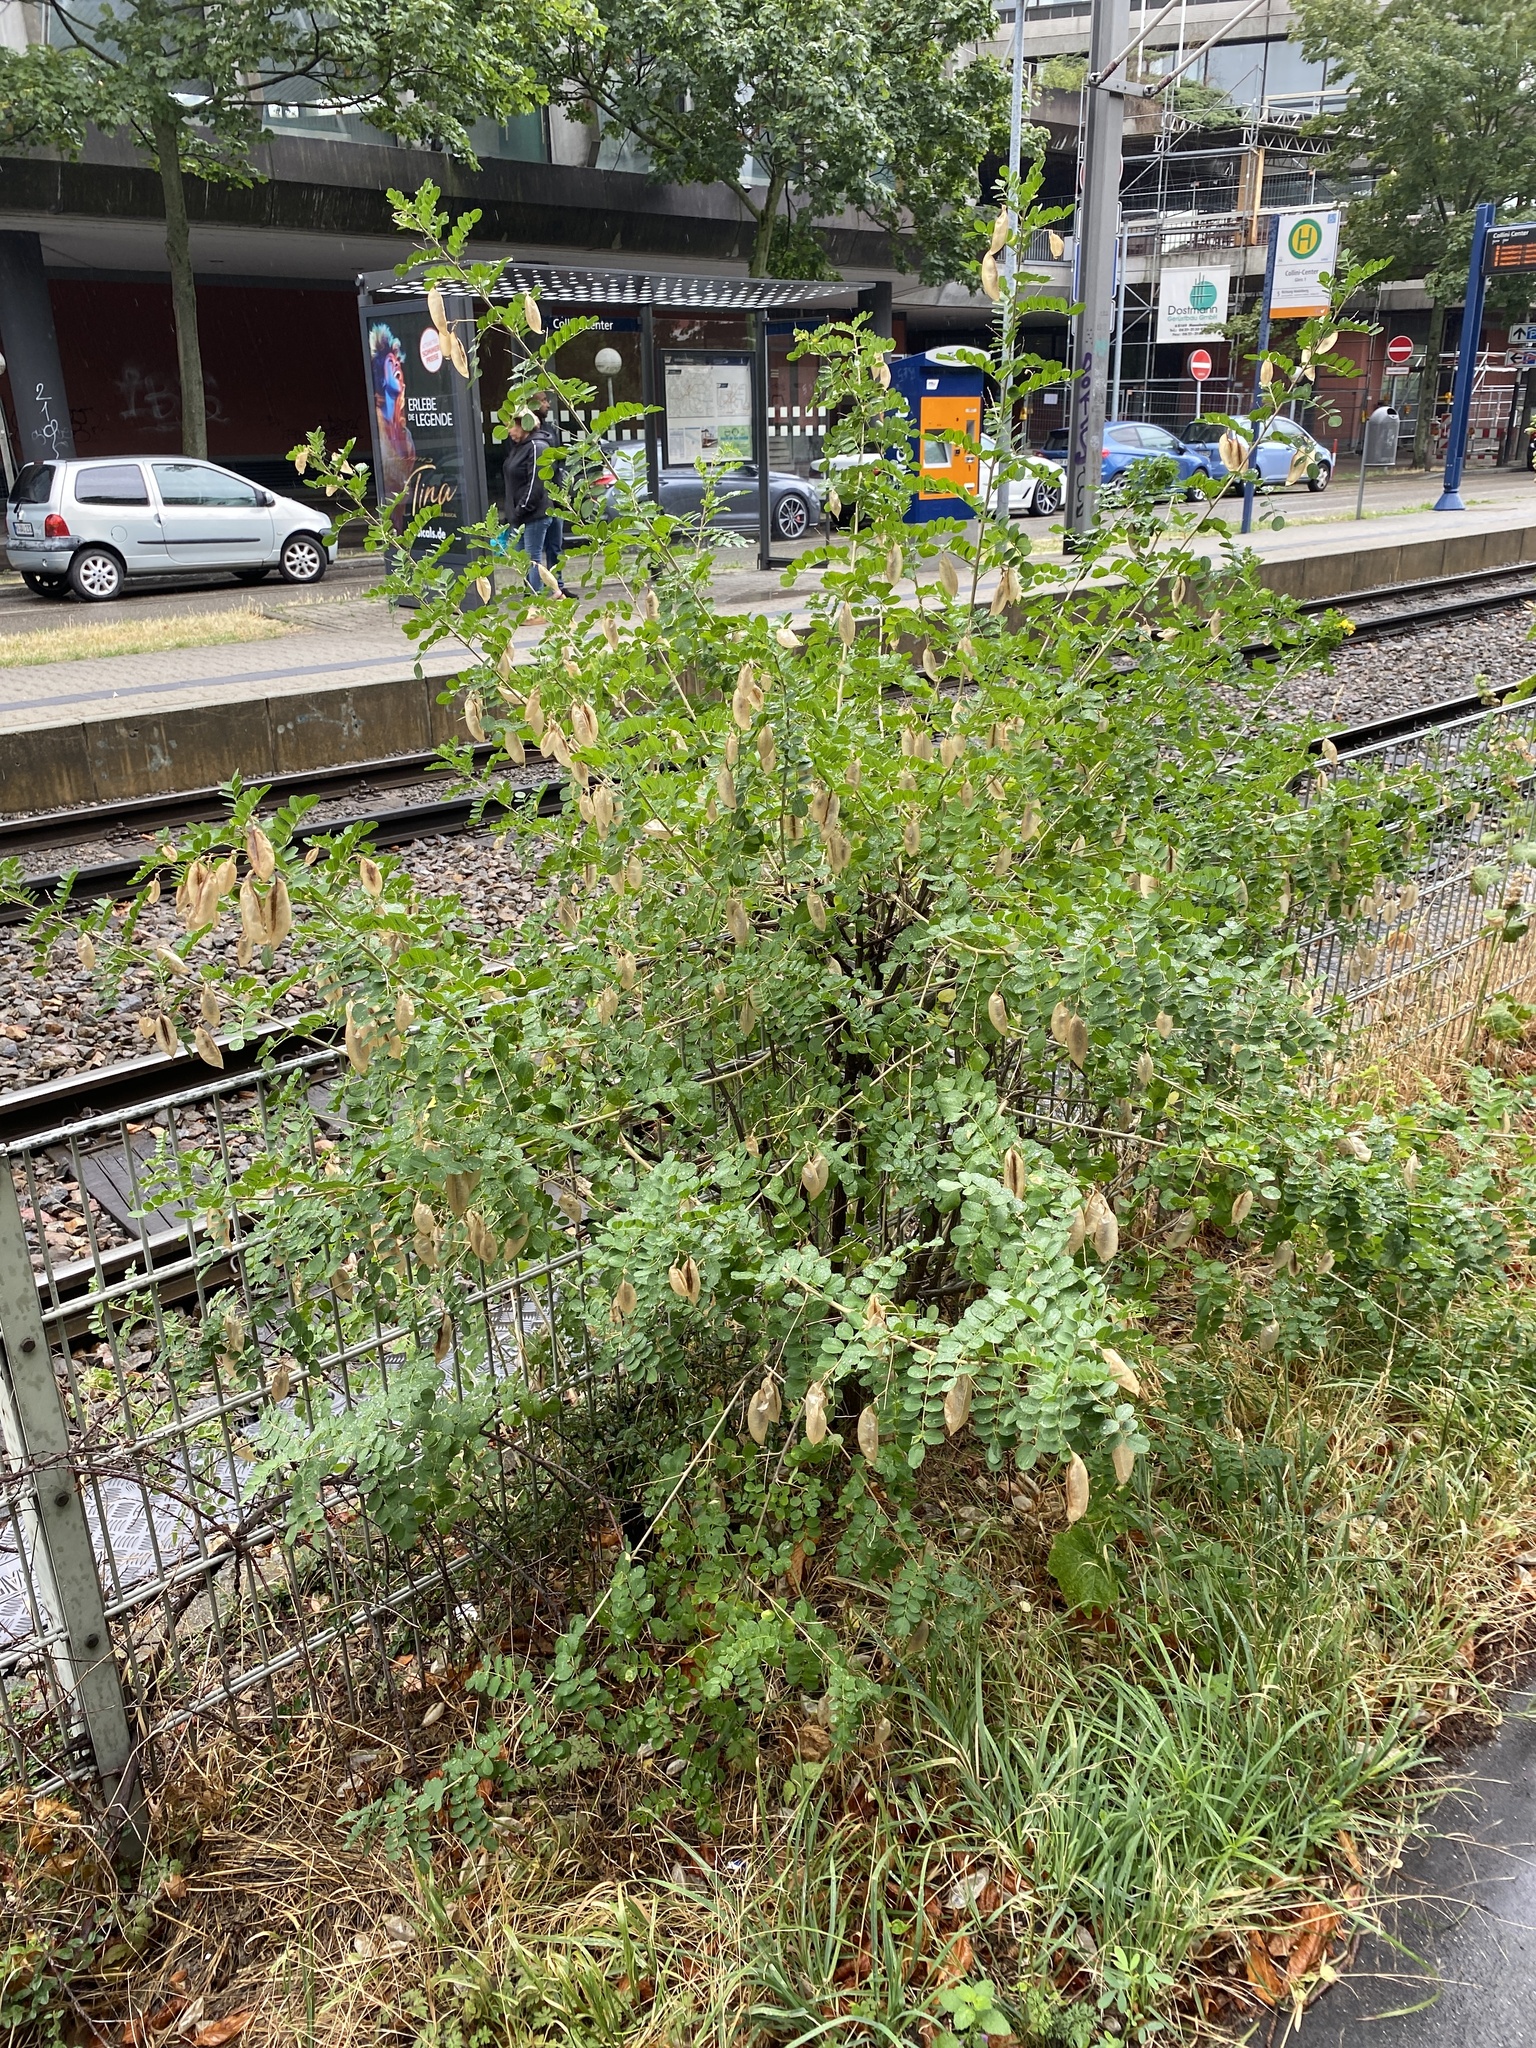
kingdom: Plantae
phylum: Tracheophyta
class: Magnoliopsida
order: Fabales
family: Fabaceae
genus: Colutea
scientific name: Colutea arborescens
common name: Bladder-senna
